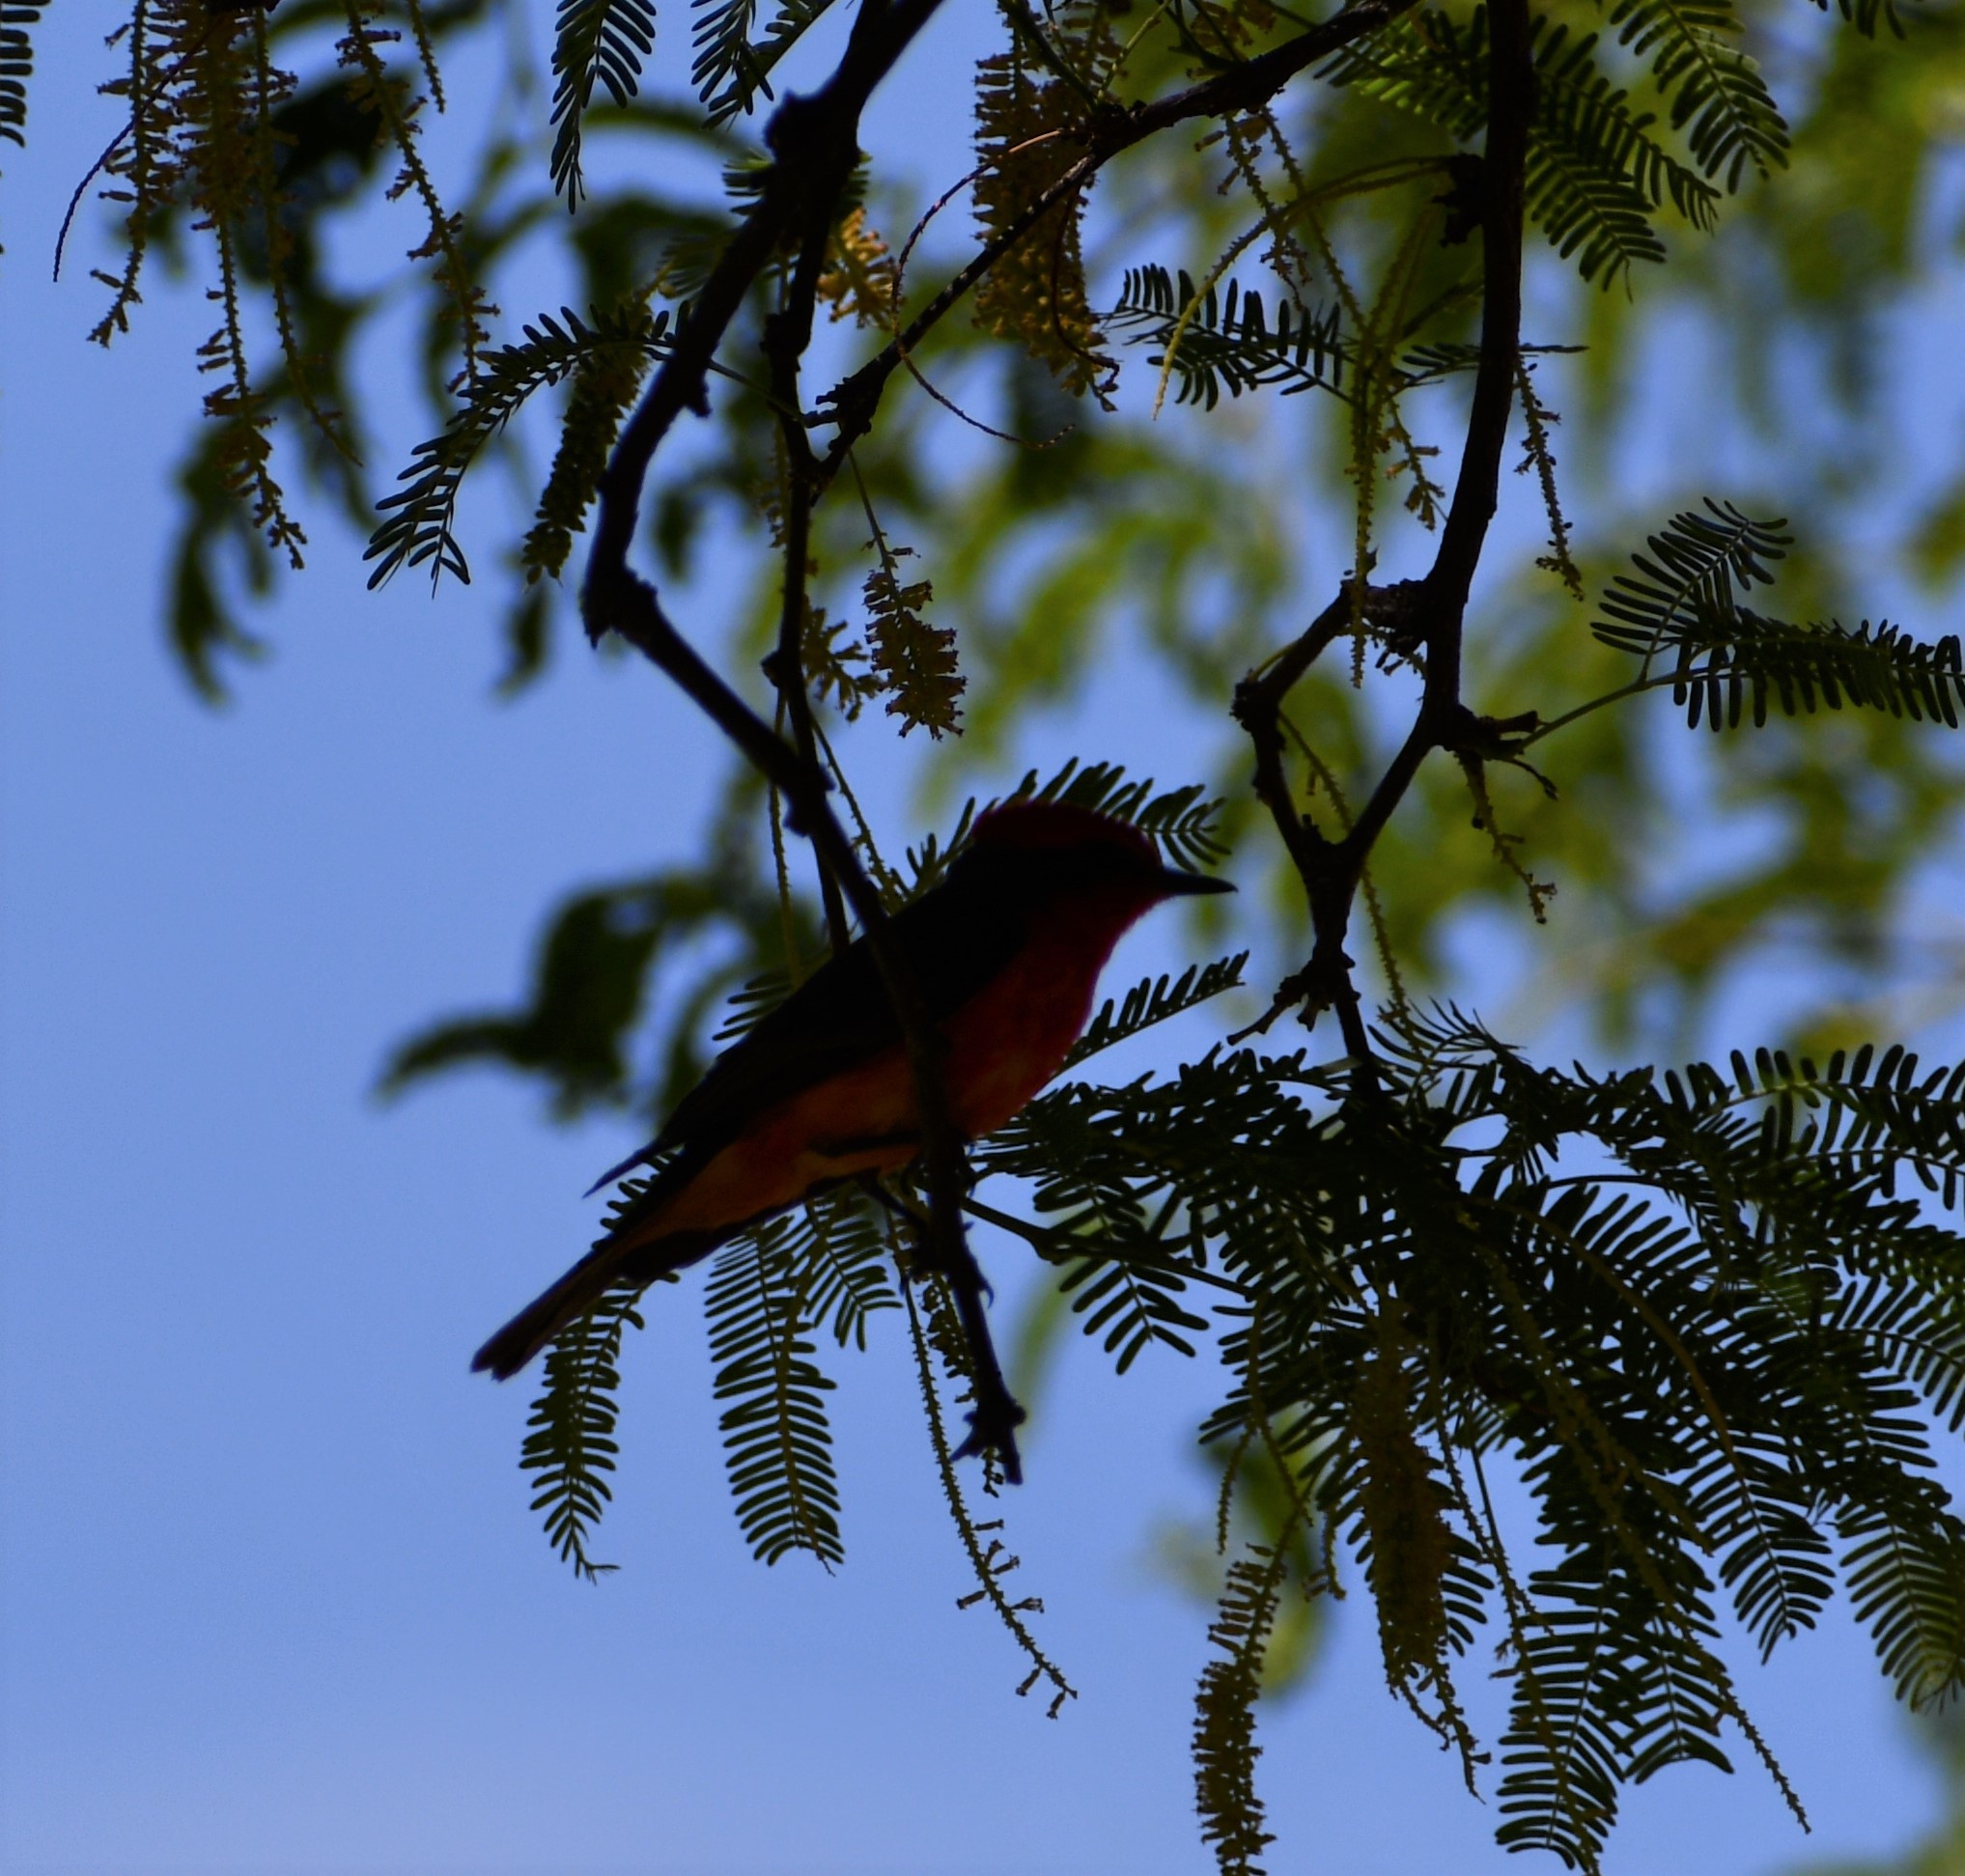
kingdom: Animalia
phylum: Chordata
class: Aves
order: Passeriformes
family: Tyrannidae
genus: Pyrocephalus
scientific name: Pyrocephalus rubinus
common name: Vermilion flycatcher
